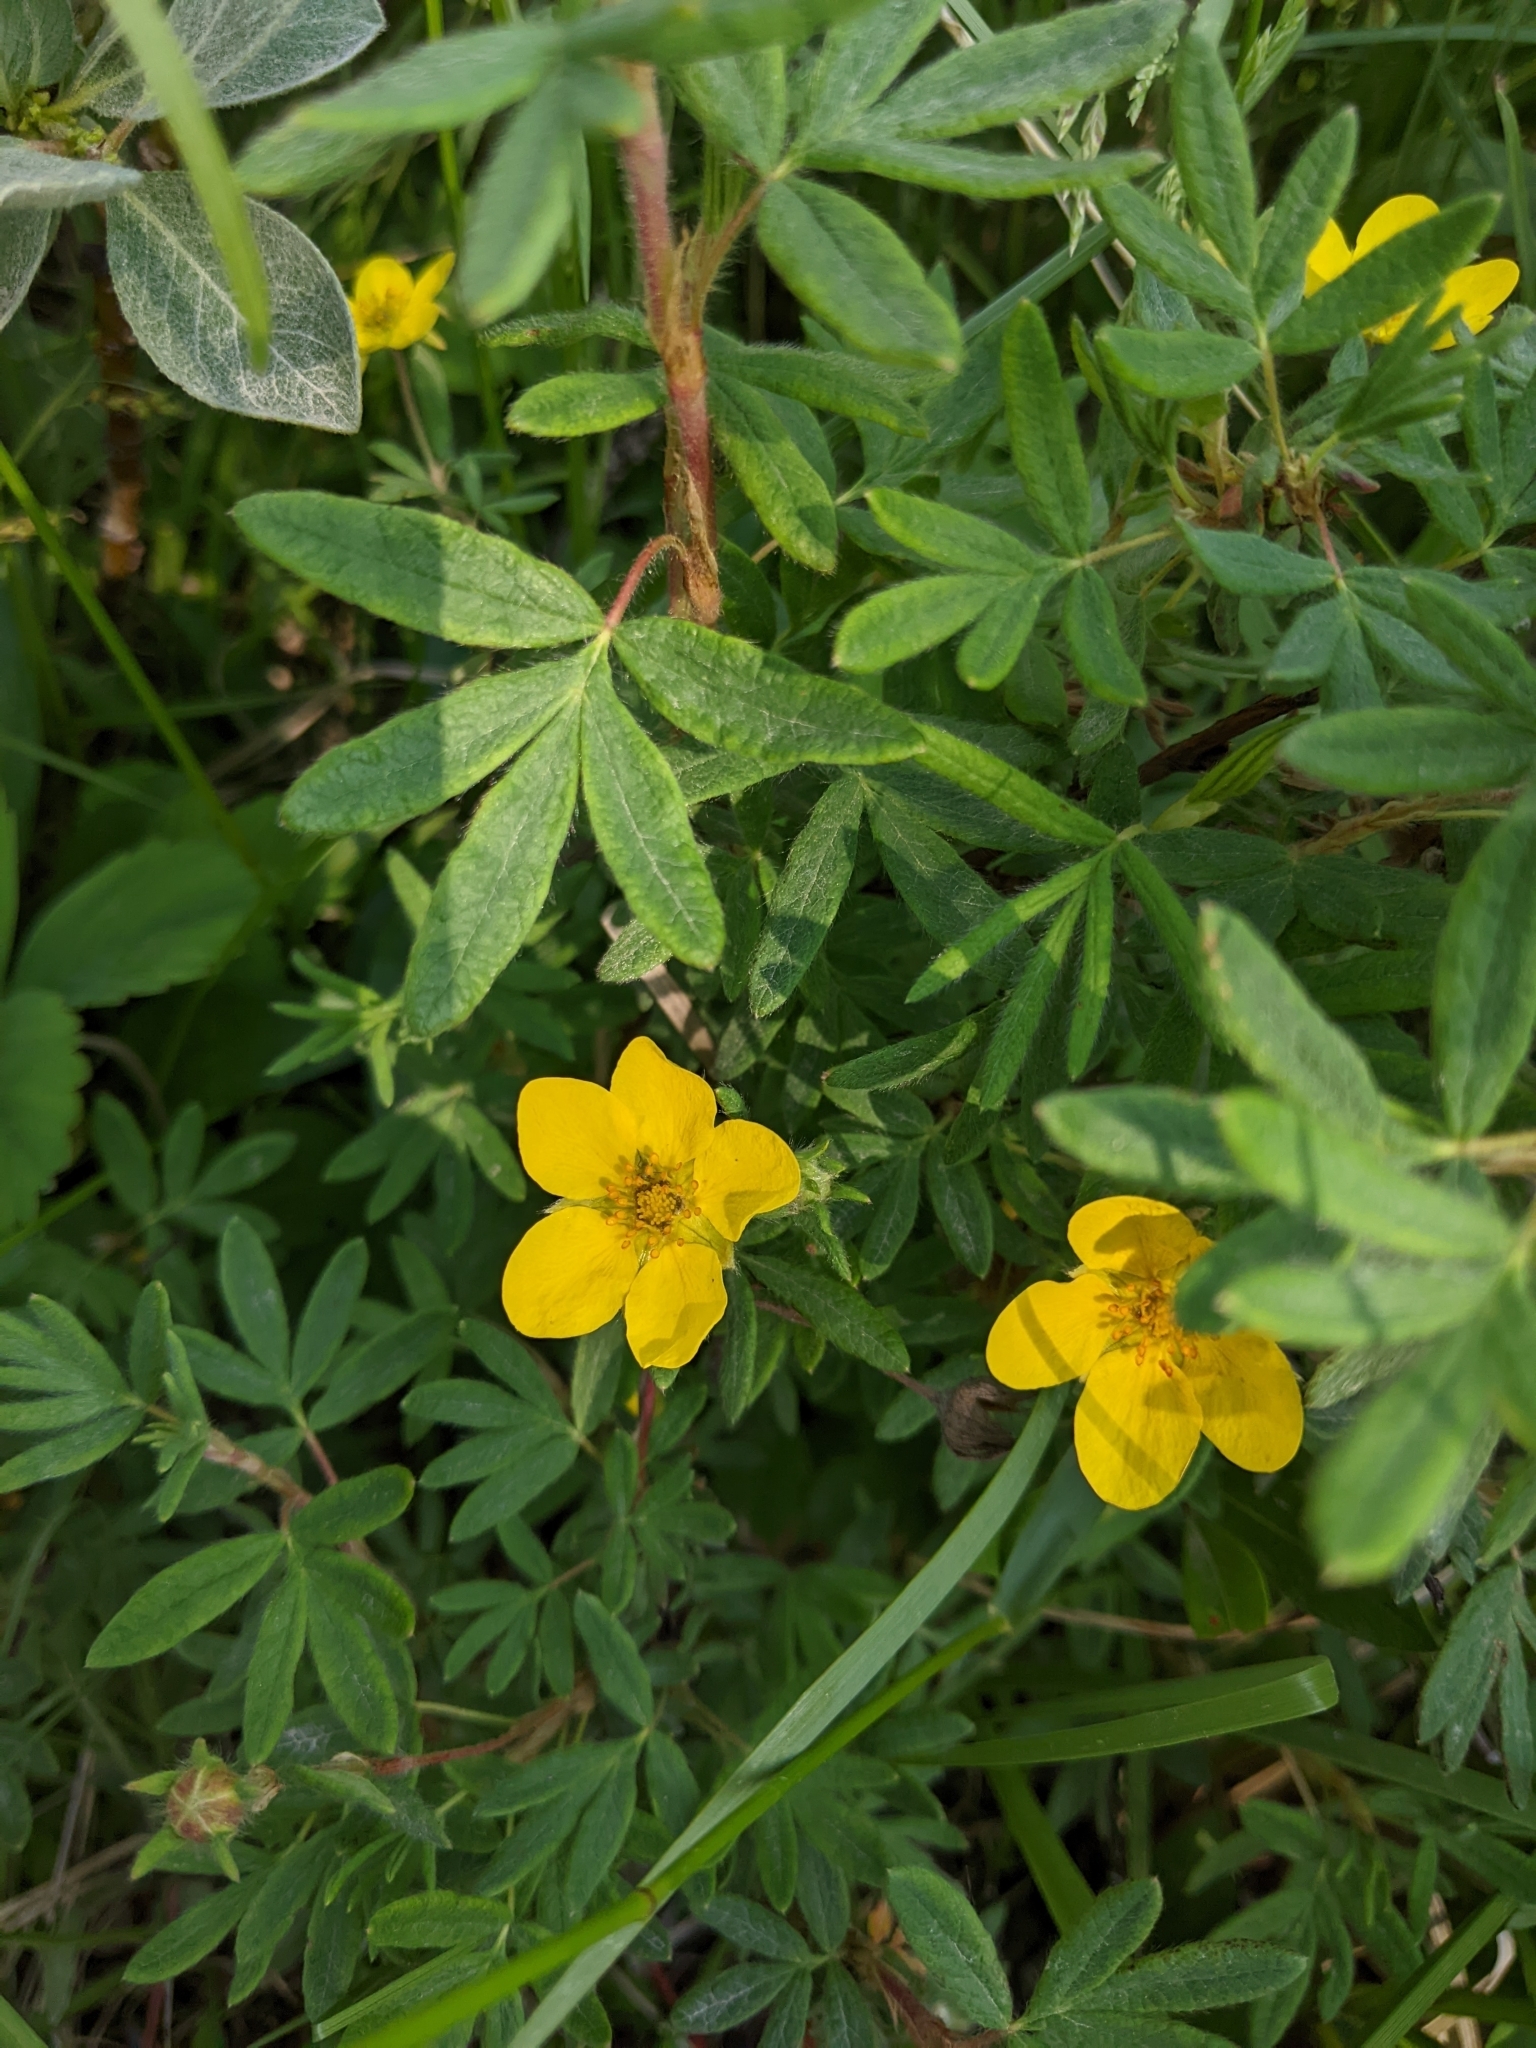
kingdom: Plantae
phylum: Tracheophyta
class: Magnoliopsida
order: Rosales
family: Rosaceae
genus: Dasiphora
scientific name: Dasiphora fruticosa
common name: Shrubby cinquefoil
